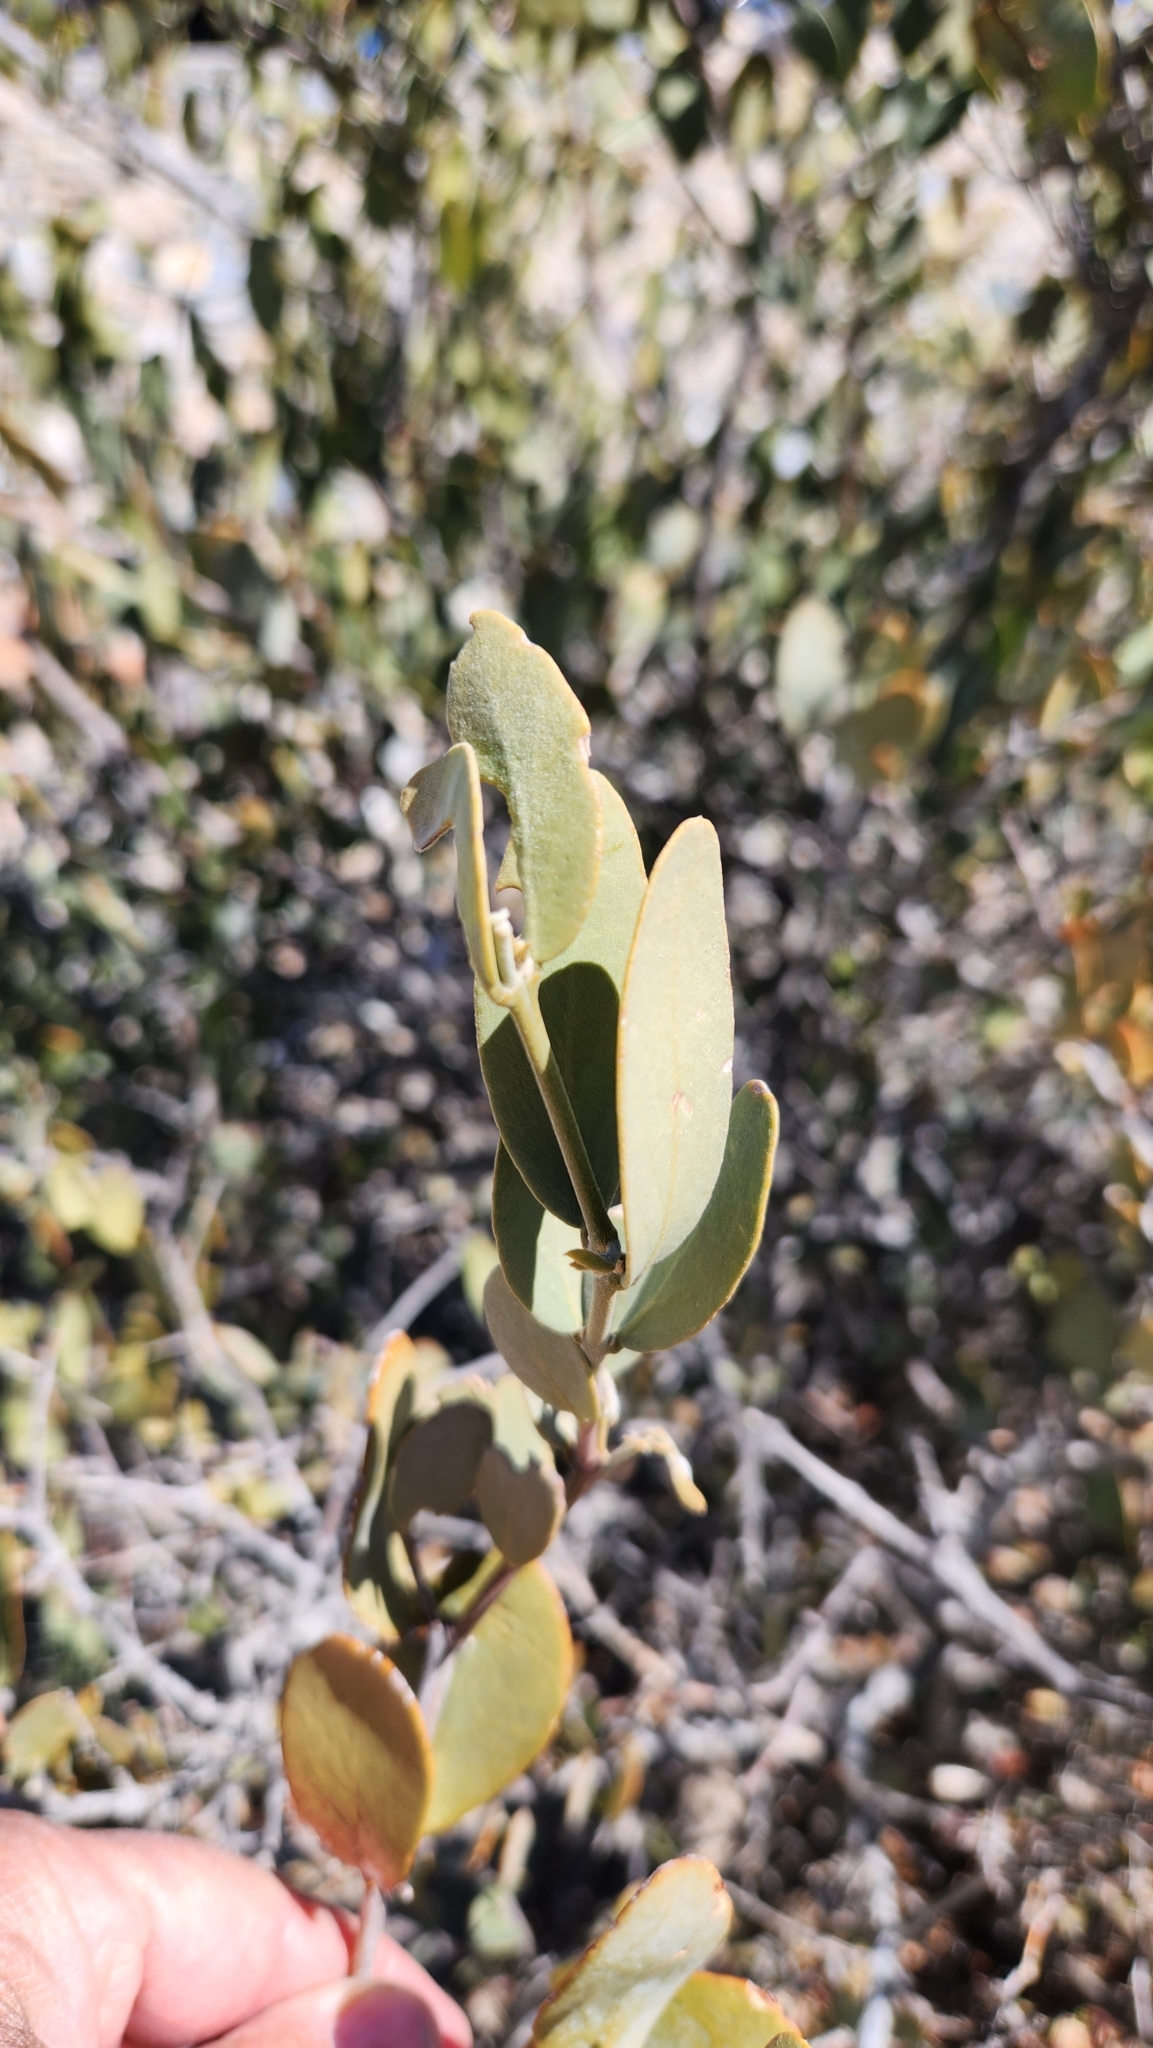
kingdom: Plantae
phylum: Tracheophyta
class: Magnoliopsida
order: Caryophyllales
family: Simmondsiaceae
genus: Simmondsia
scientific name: Simmondsia chinensis
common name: Jojoba
